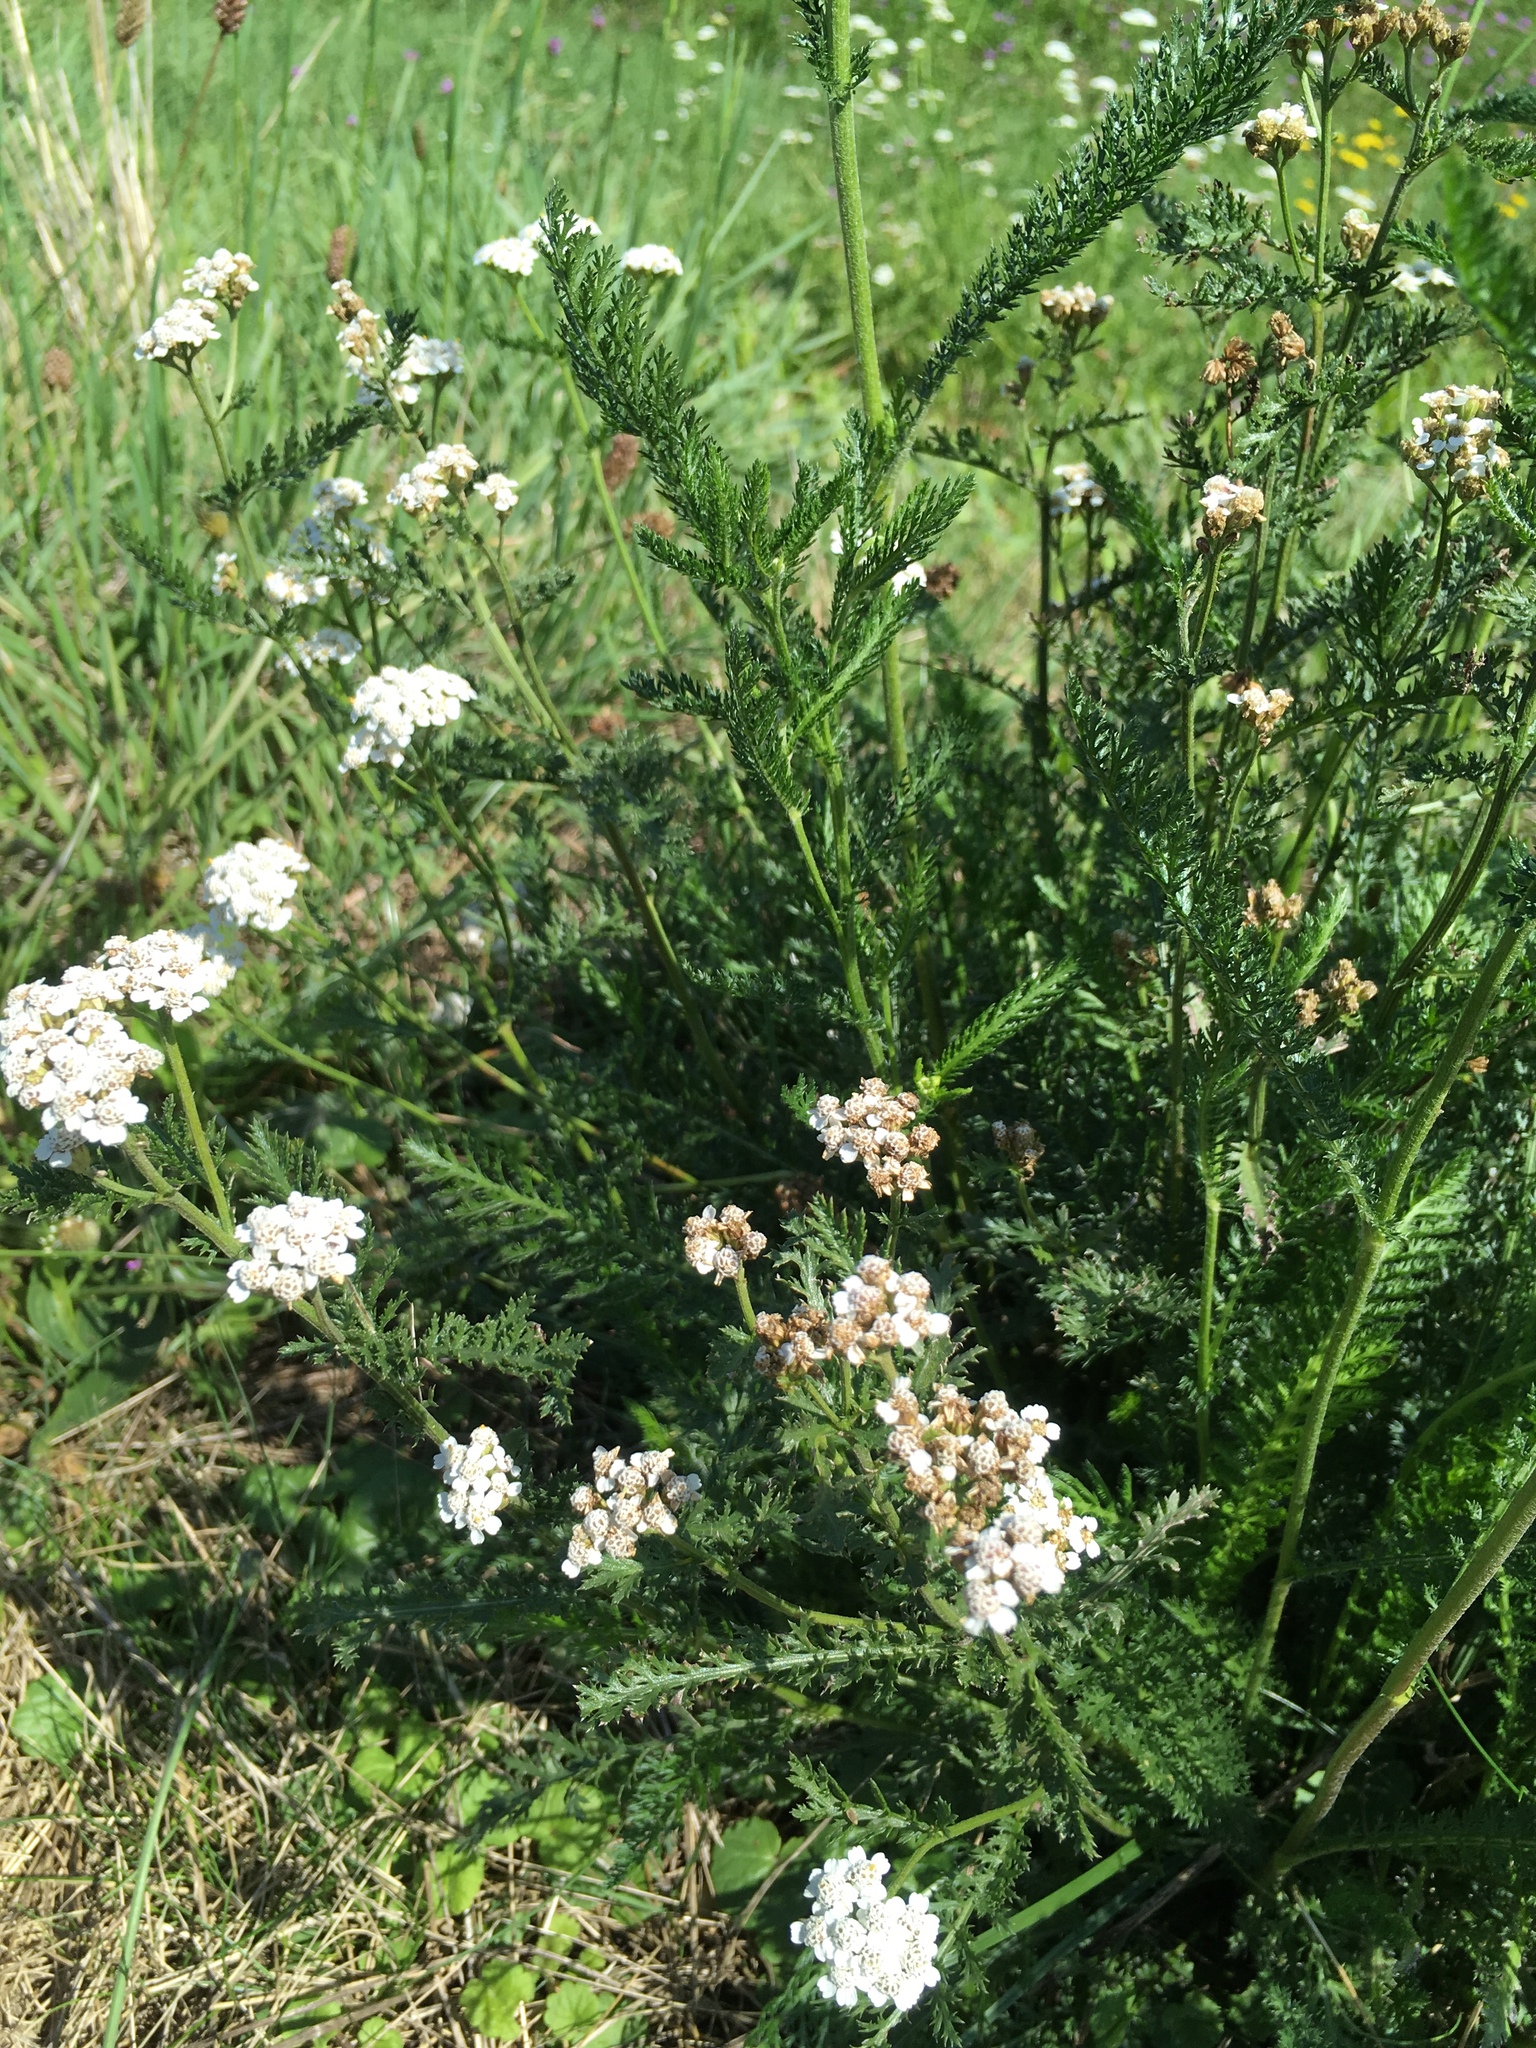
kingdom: Plantae
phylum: Tracheophyta
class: Magnoliopsida
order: Asterales
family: Asteraceae
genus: Achillea
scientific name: Achillea millefolium
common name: Yarrow
